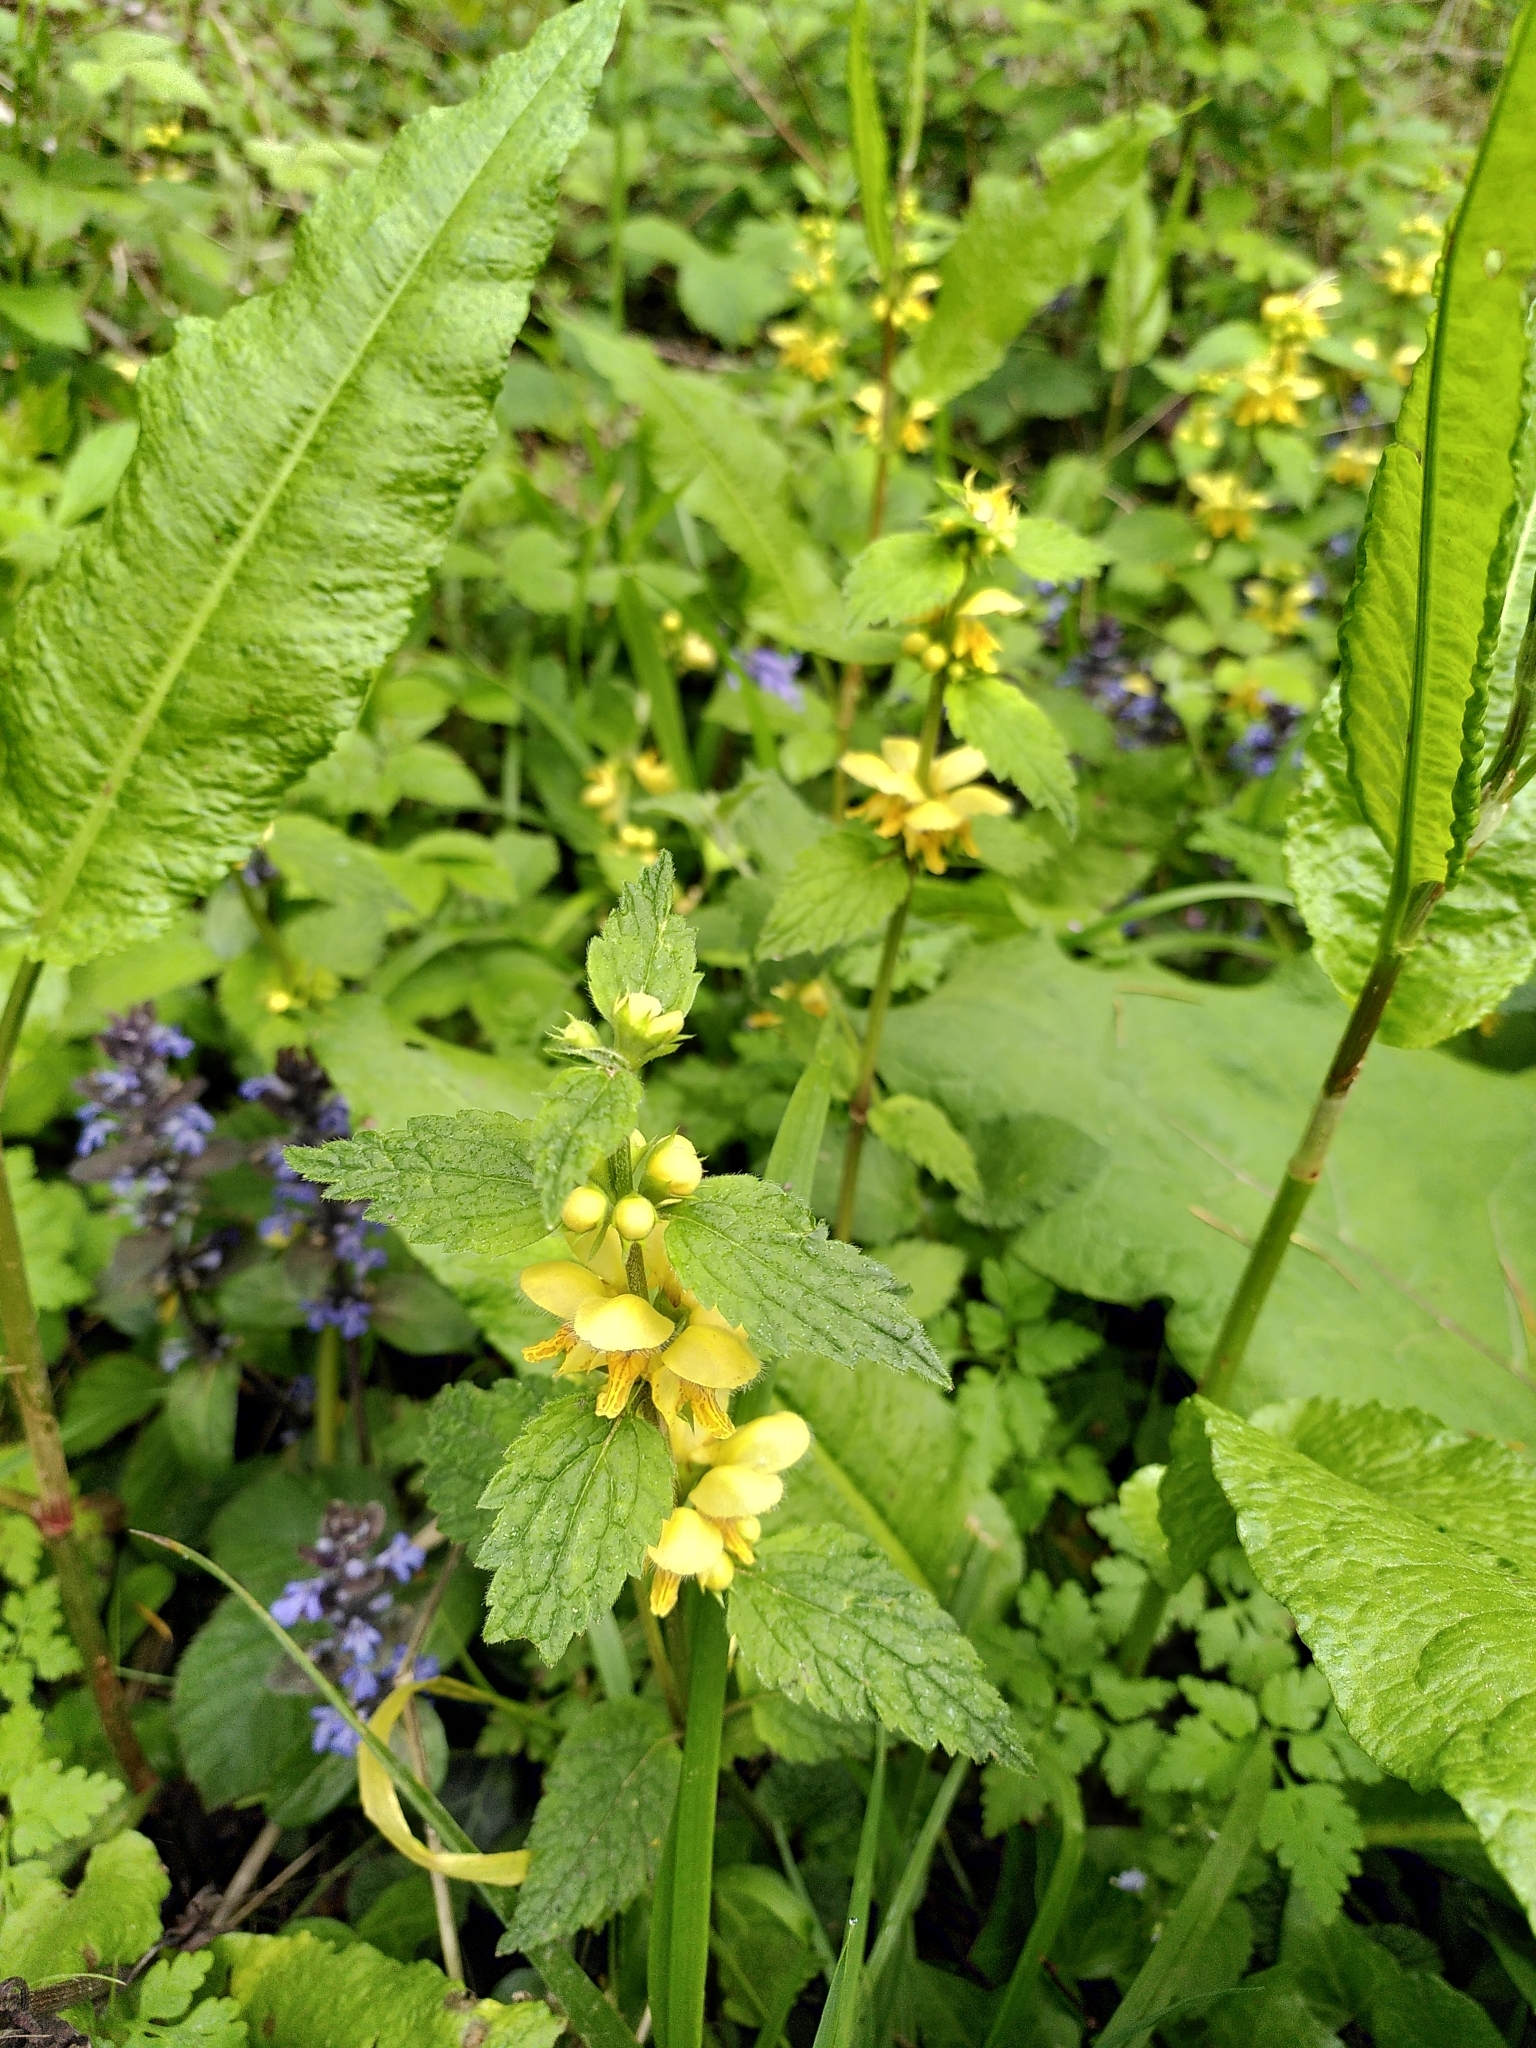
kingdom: Plantae
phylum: Tracheophyta
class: Magnoliopsida
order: Lamiales
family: Lamiaceae
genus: Lamium
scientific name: Lamium galeobdolon
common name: Yellow archangel
